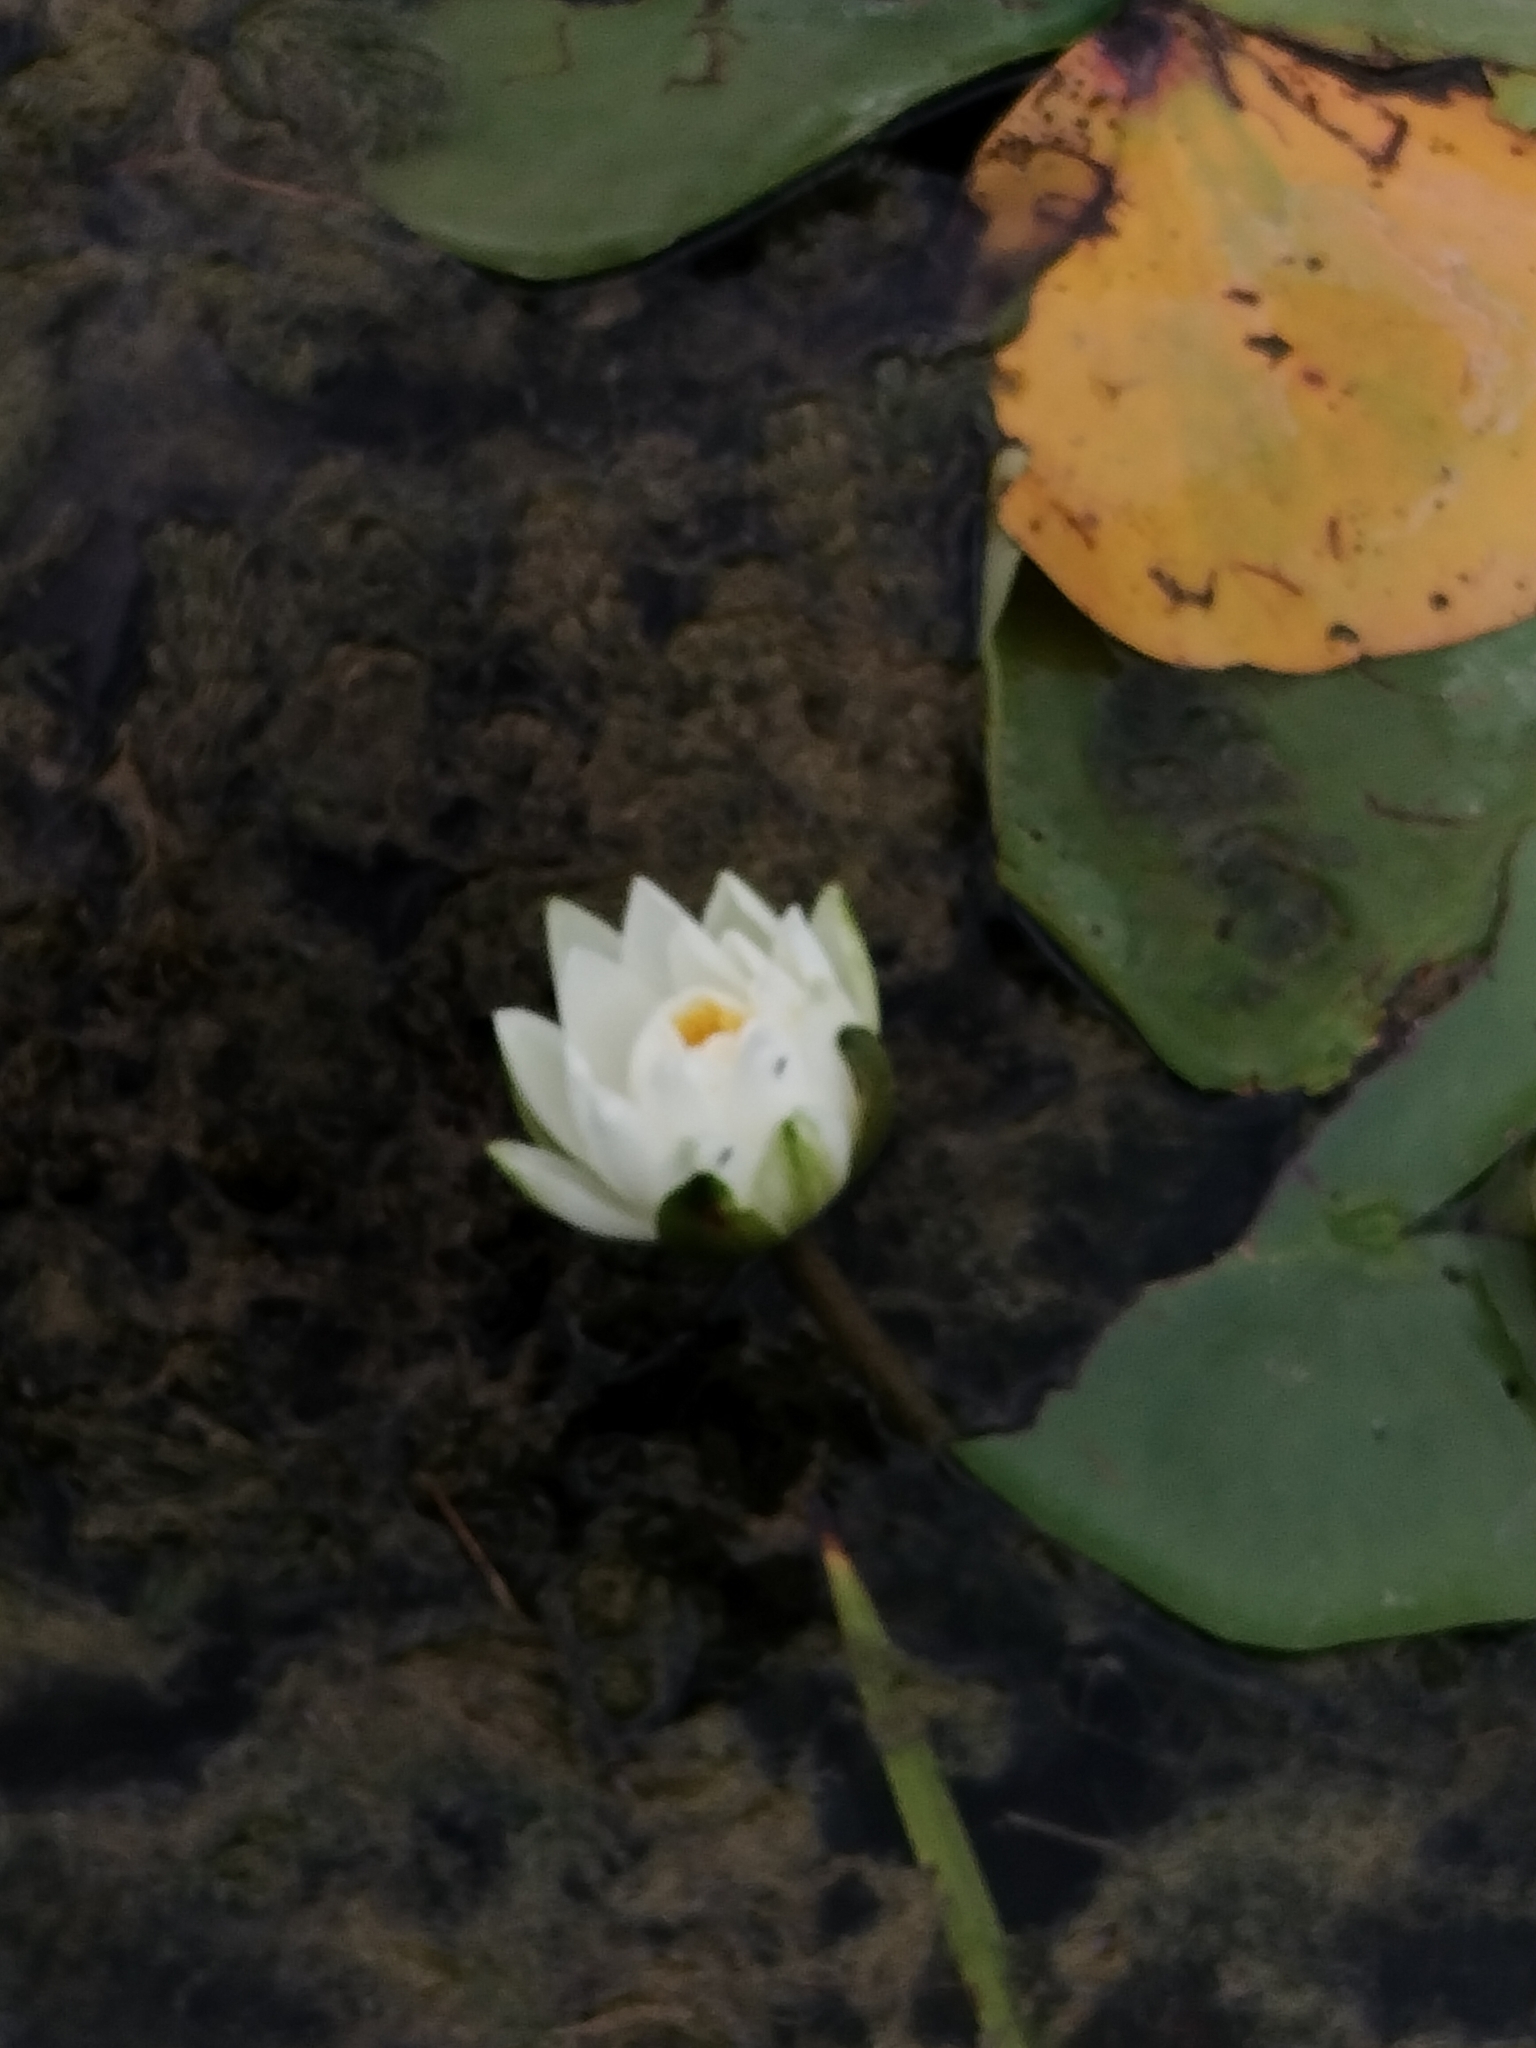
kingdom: Plantae
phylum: Tracheophyta
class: Magnoliopsida
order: Nymphaeales
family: Nymphaeaceae
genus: Nymphaea
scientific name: Nymphaea odorata
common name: Fragrant water-lily
